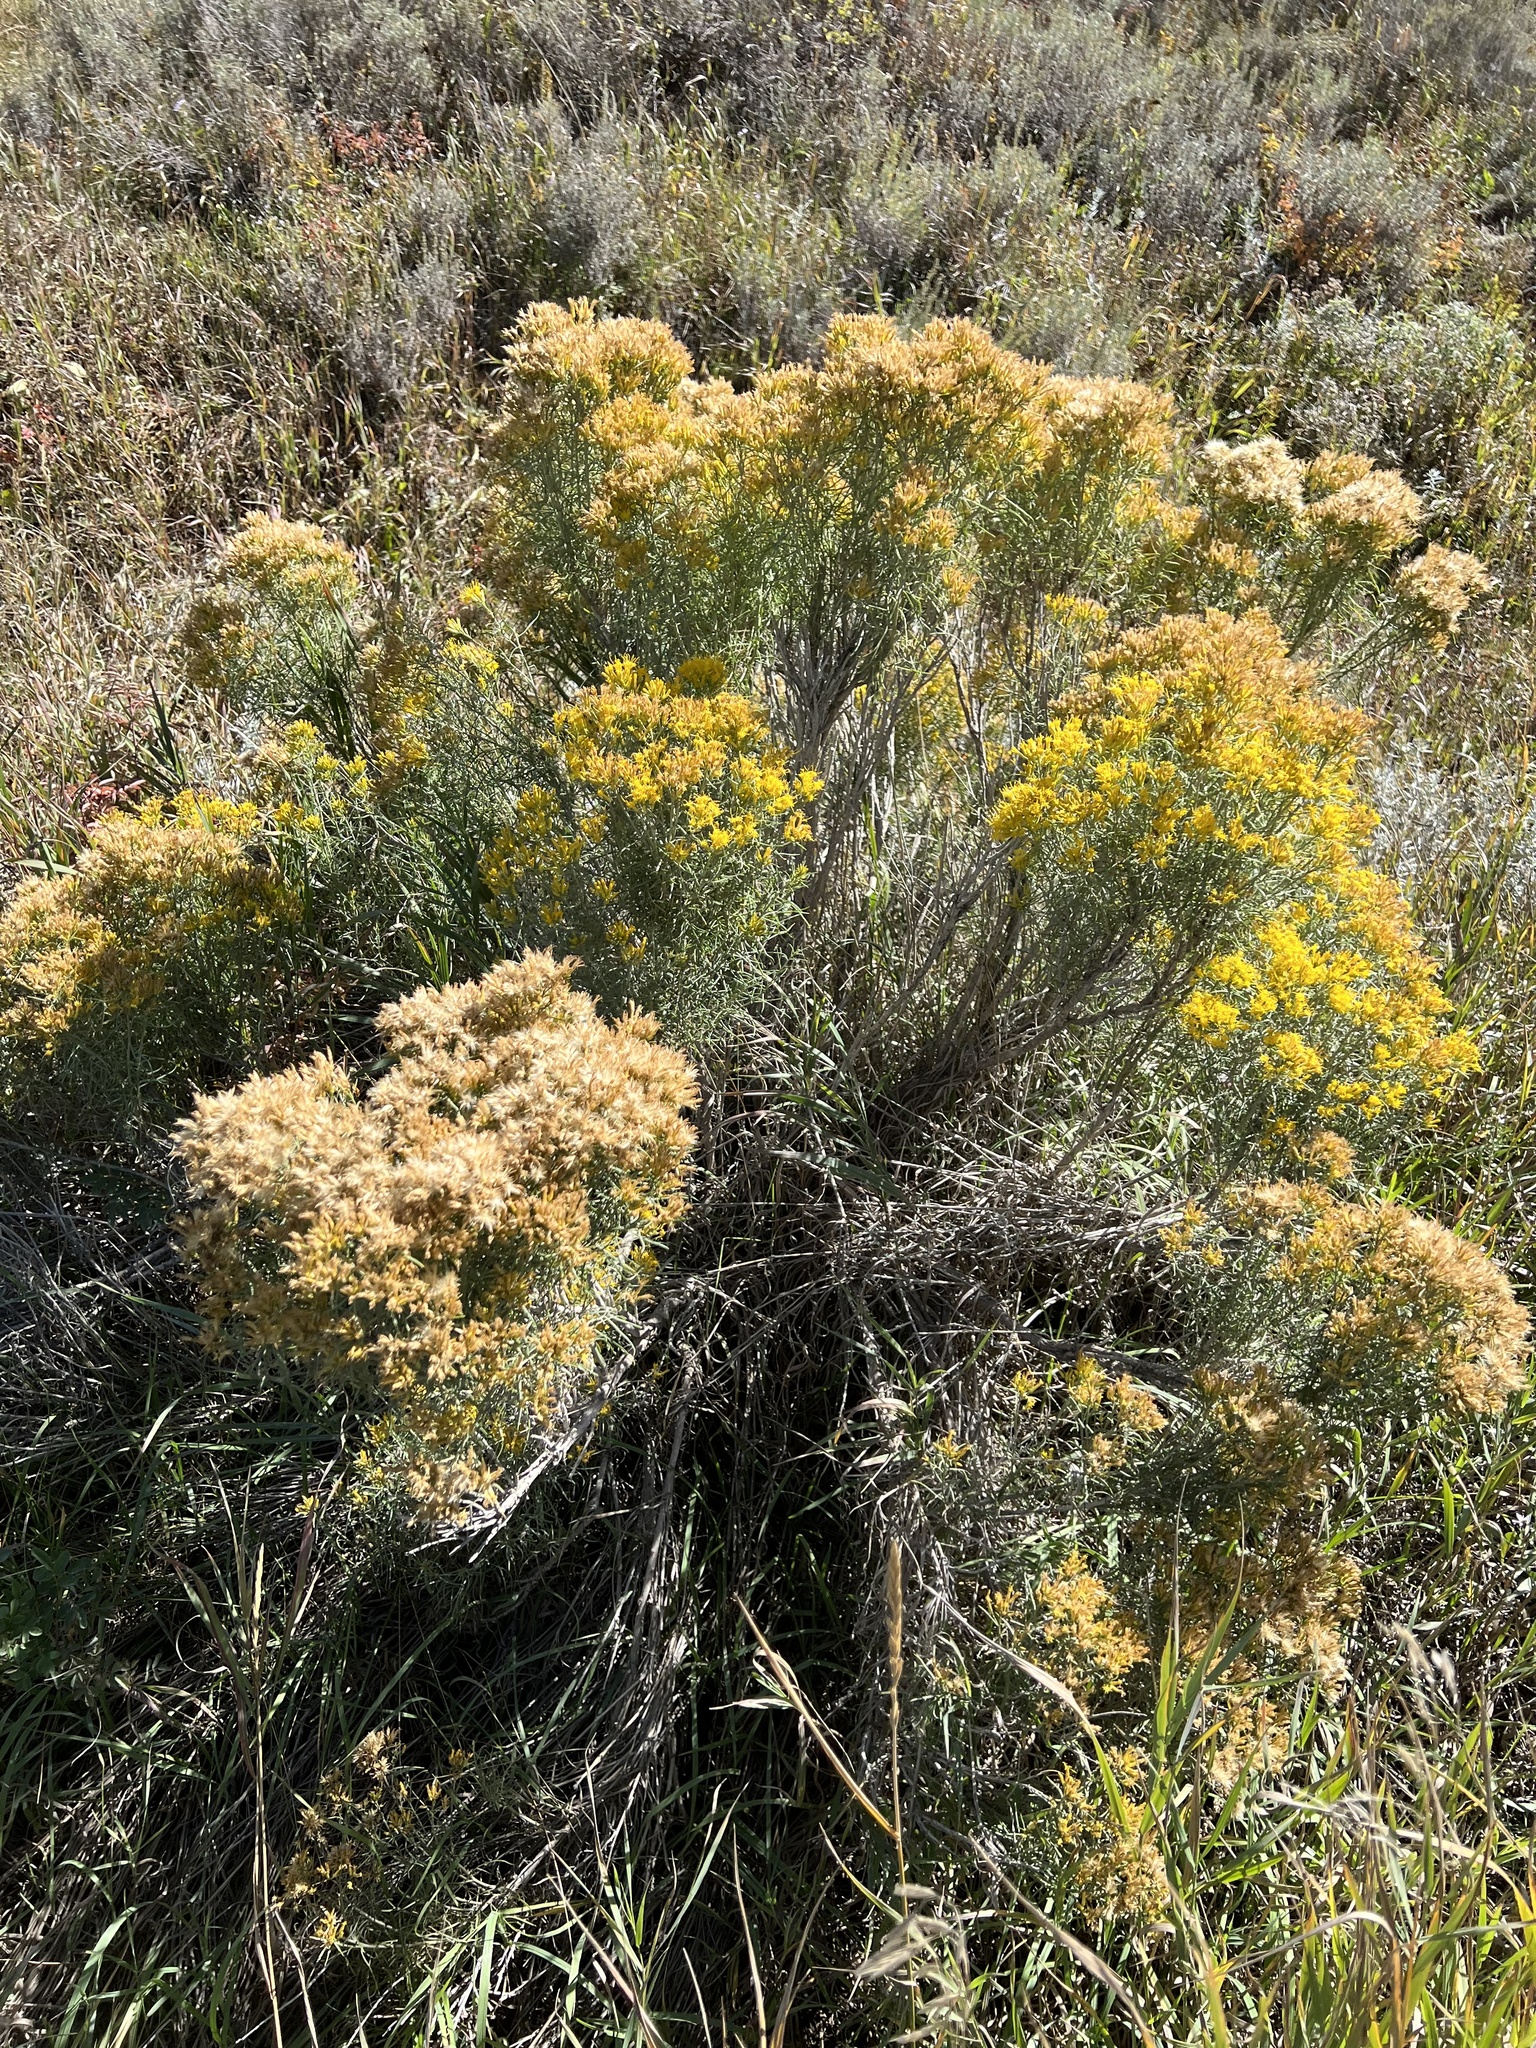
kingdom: Plantae
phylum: Tracheophyta
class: Magnoliopsida
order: Asterales
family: Asteraceae
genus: Chrysothamnus
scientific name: Chrysothamnus viscidiflorus
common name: Yellow rabbitbrush
